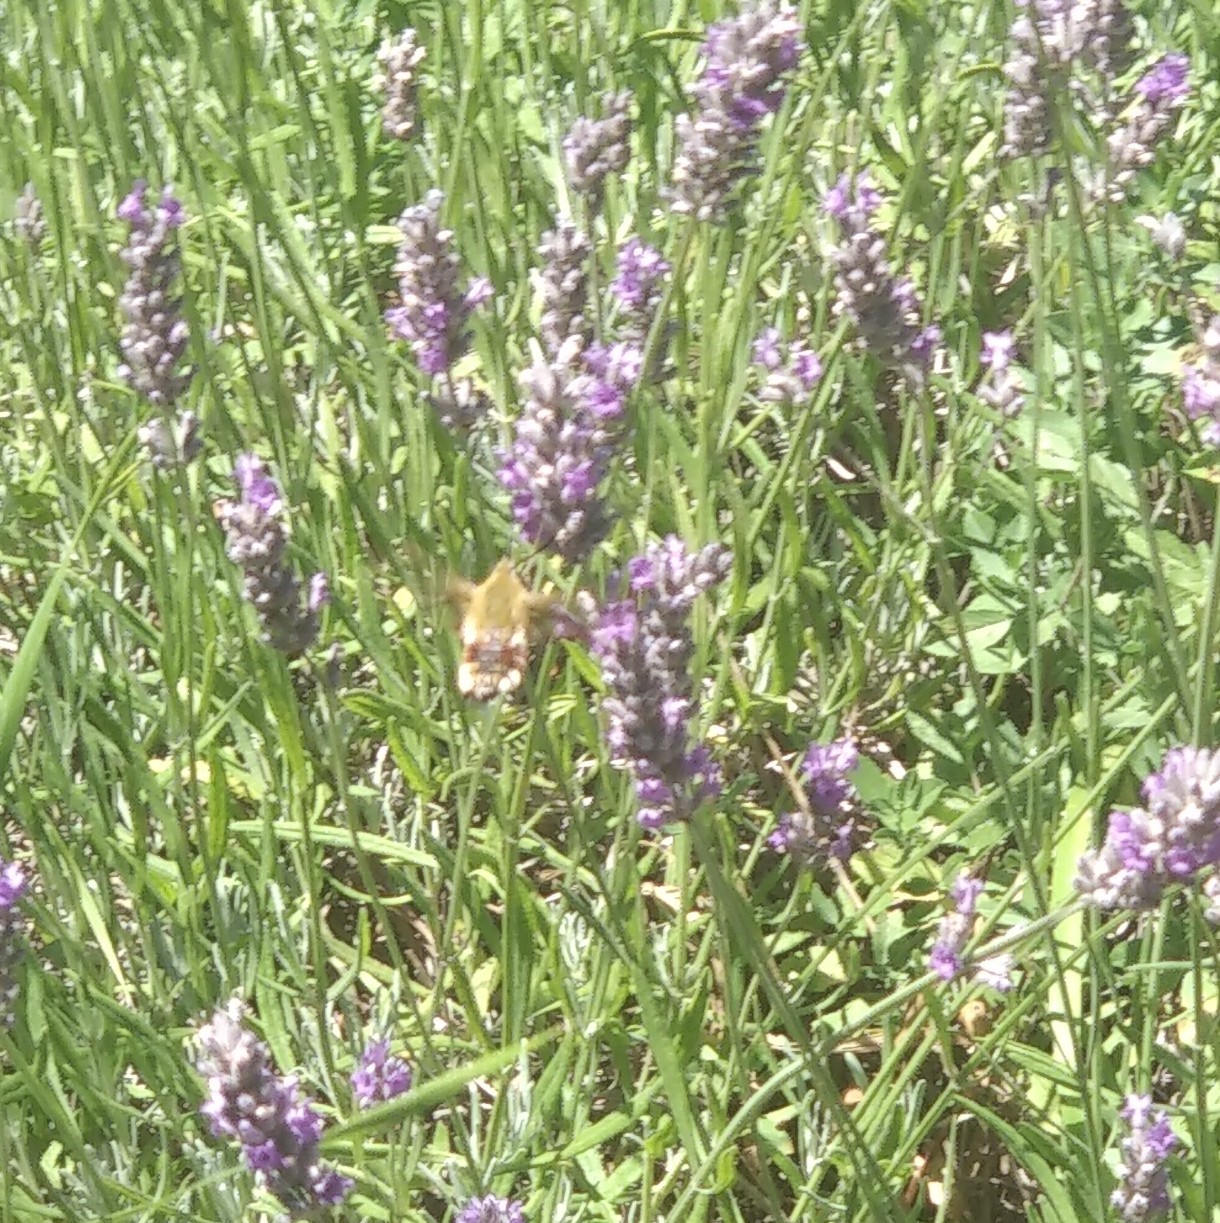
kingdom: Animalia
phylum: Arthropoda
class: Insecta
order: Lepidoptera
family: Sphingidae
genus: Hemaris
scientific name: Hemaris fuciformis
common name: Broad-bordered bee hawk-moth
